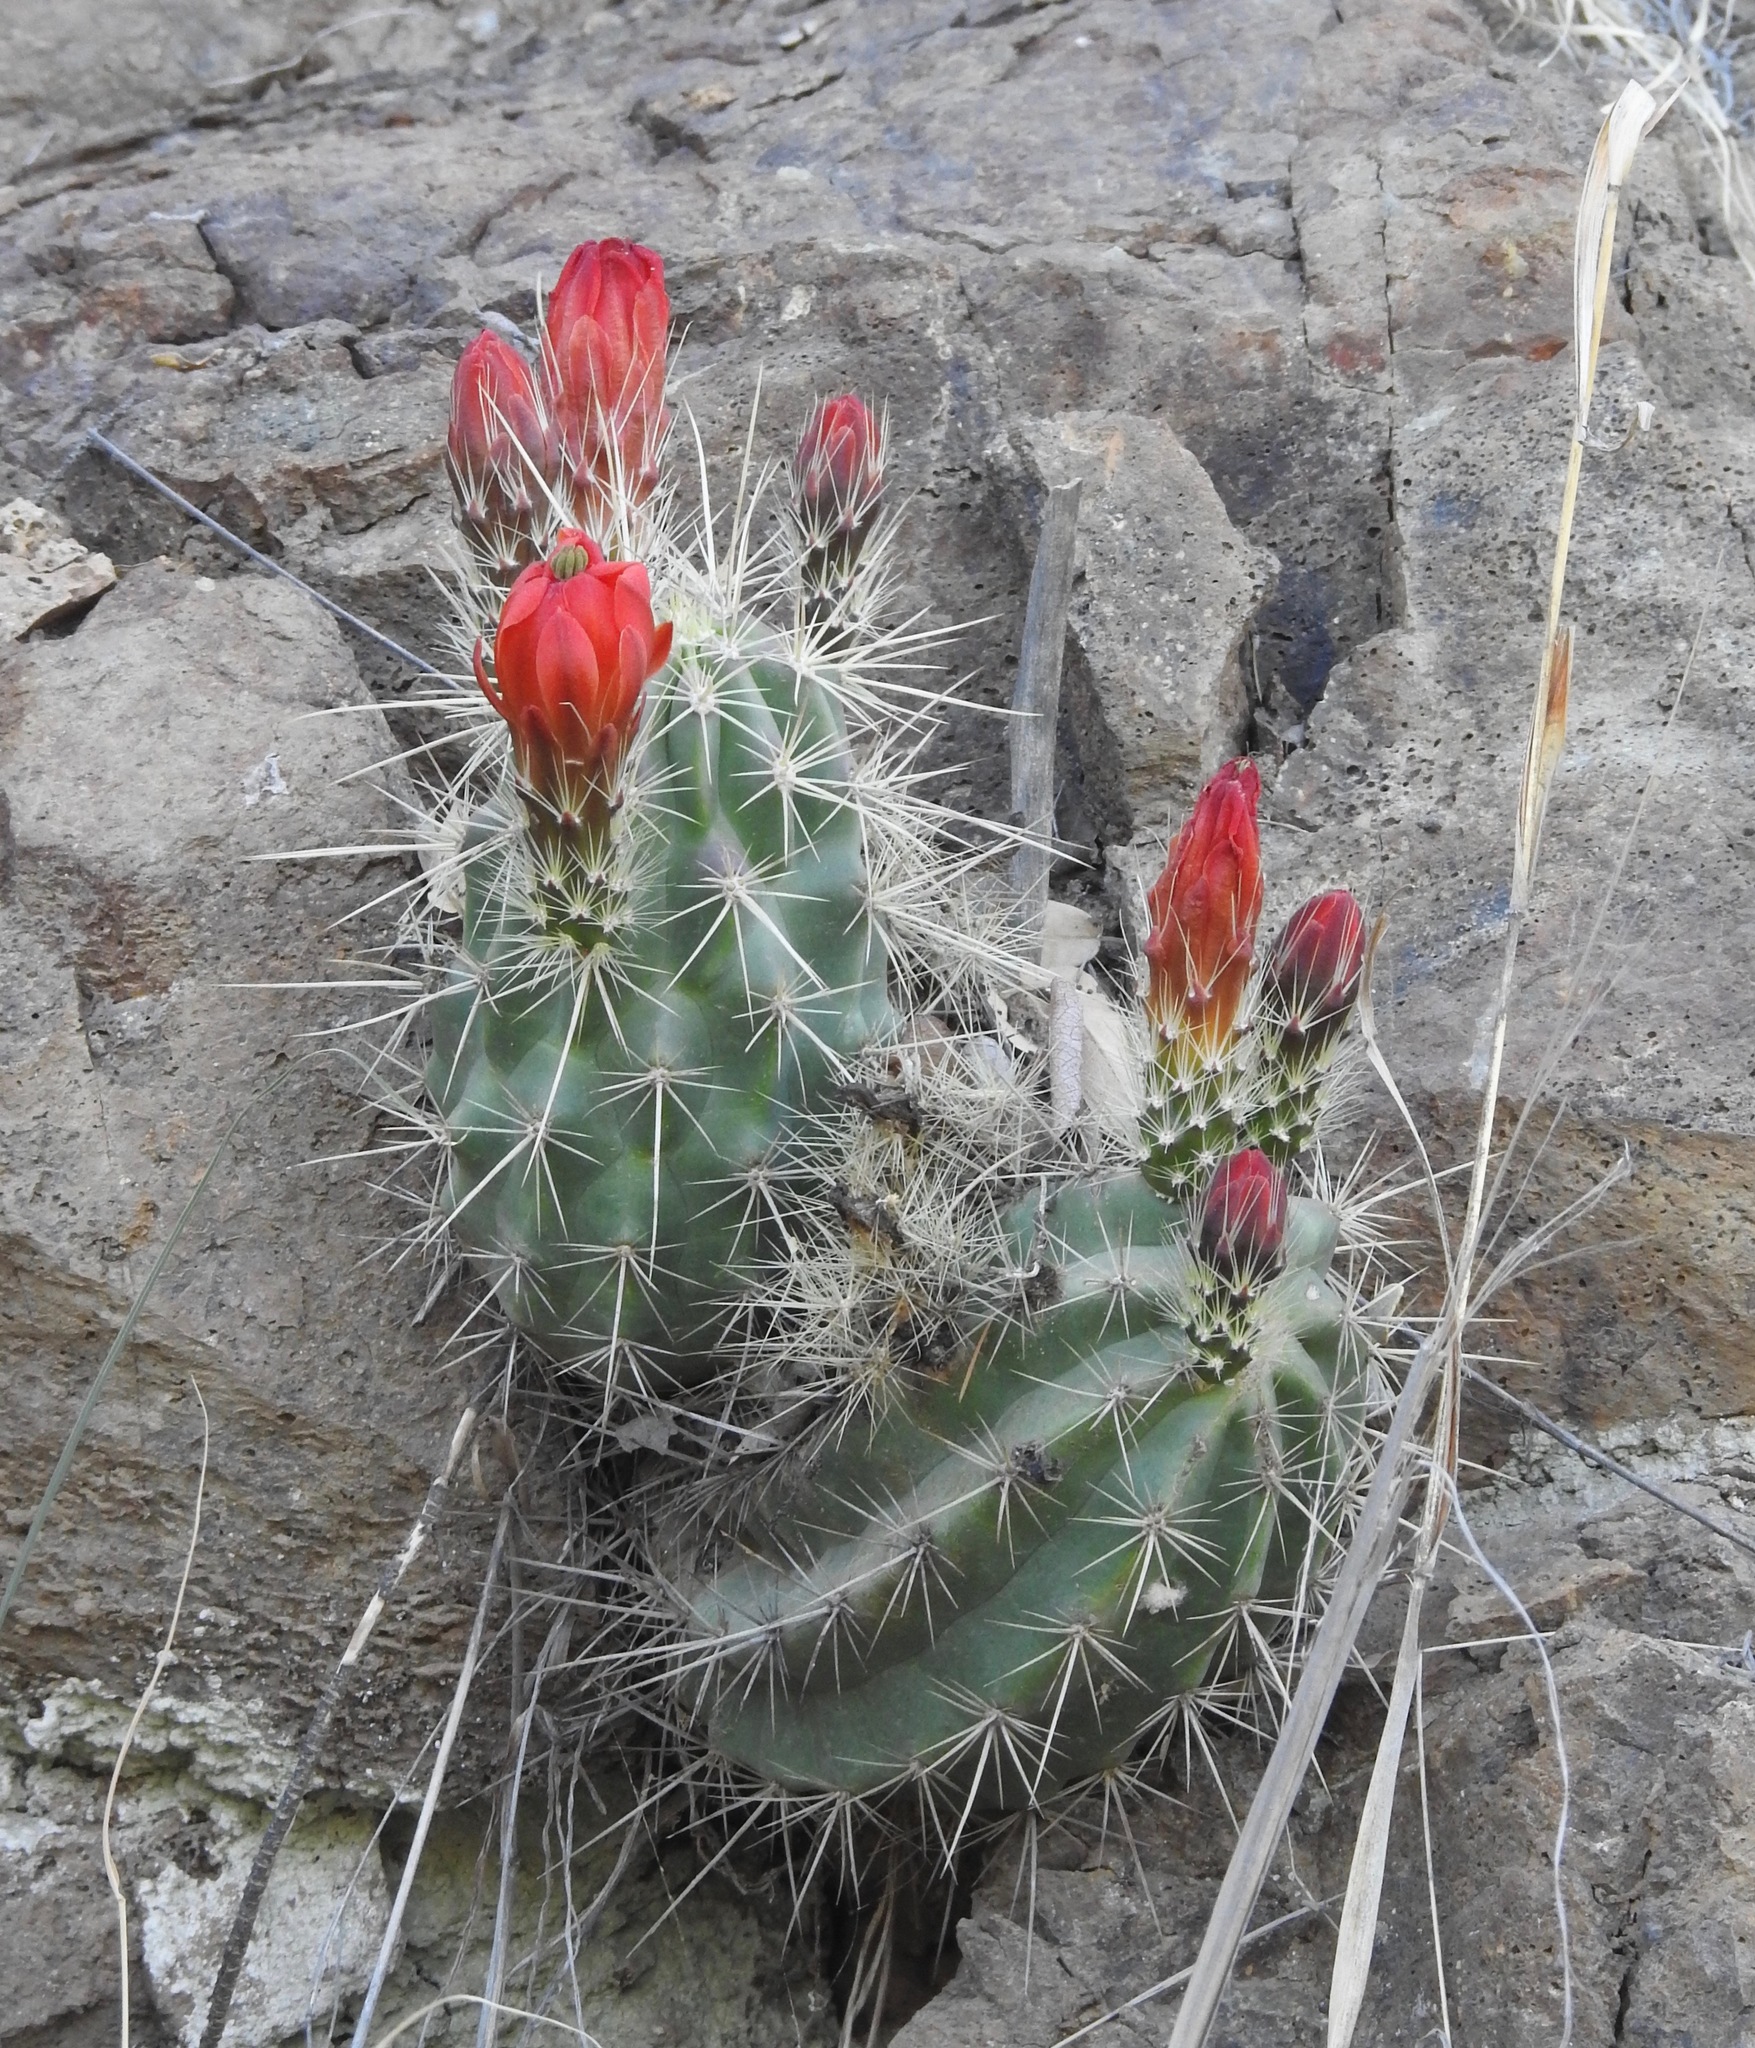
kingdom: Plantae
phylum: Tracheophyta
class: Magnoliopsida
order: Caryophyllales
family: Cactaceae
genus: Echinocereus
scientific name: Echinocereus coccineus
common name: Scarlet hedgehog cactus
